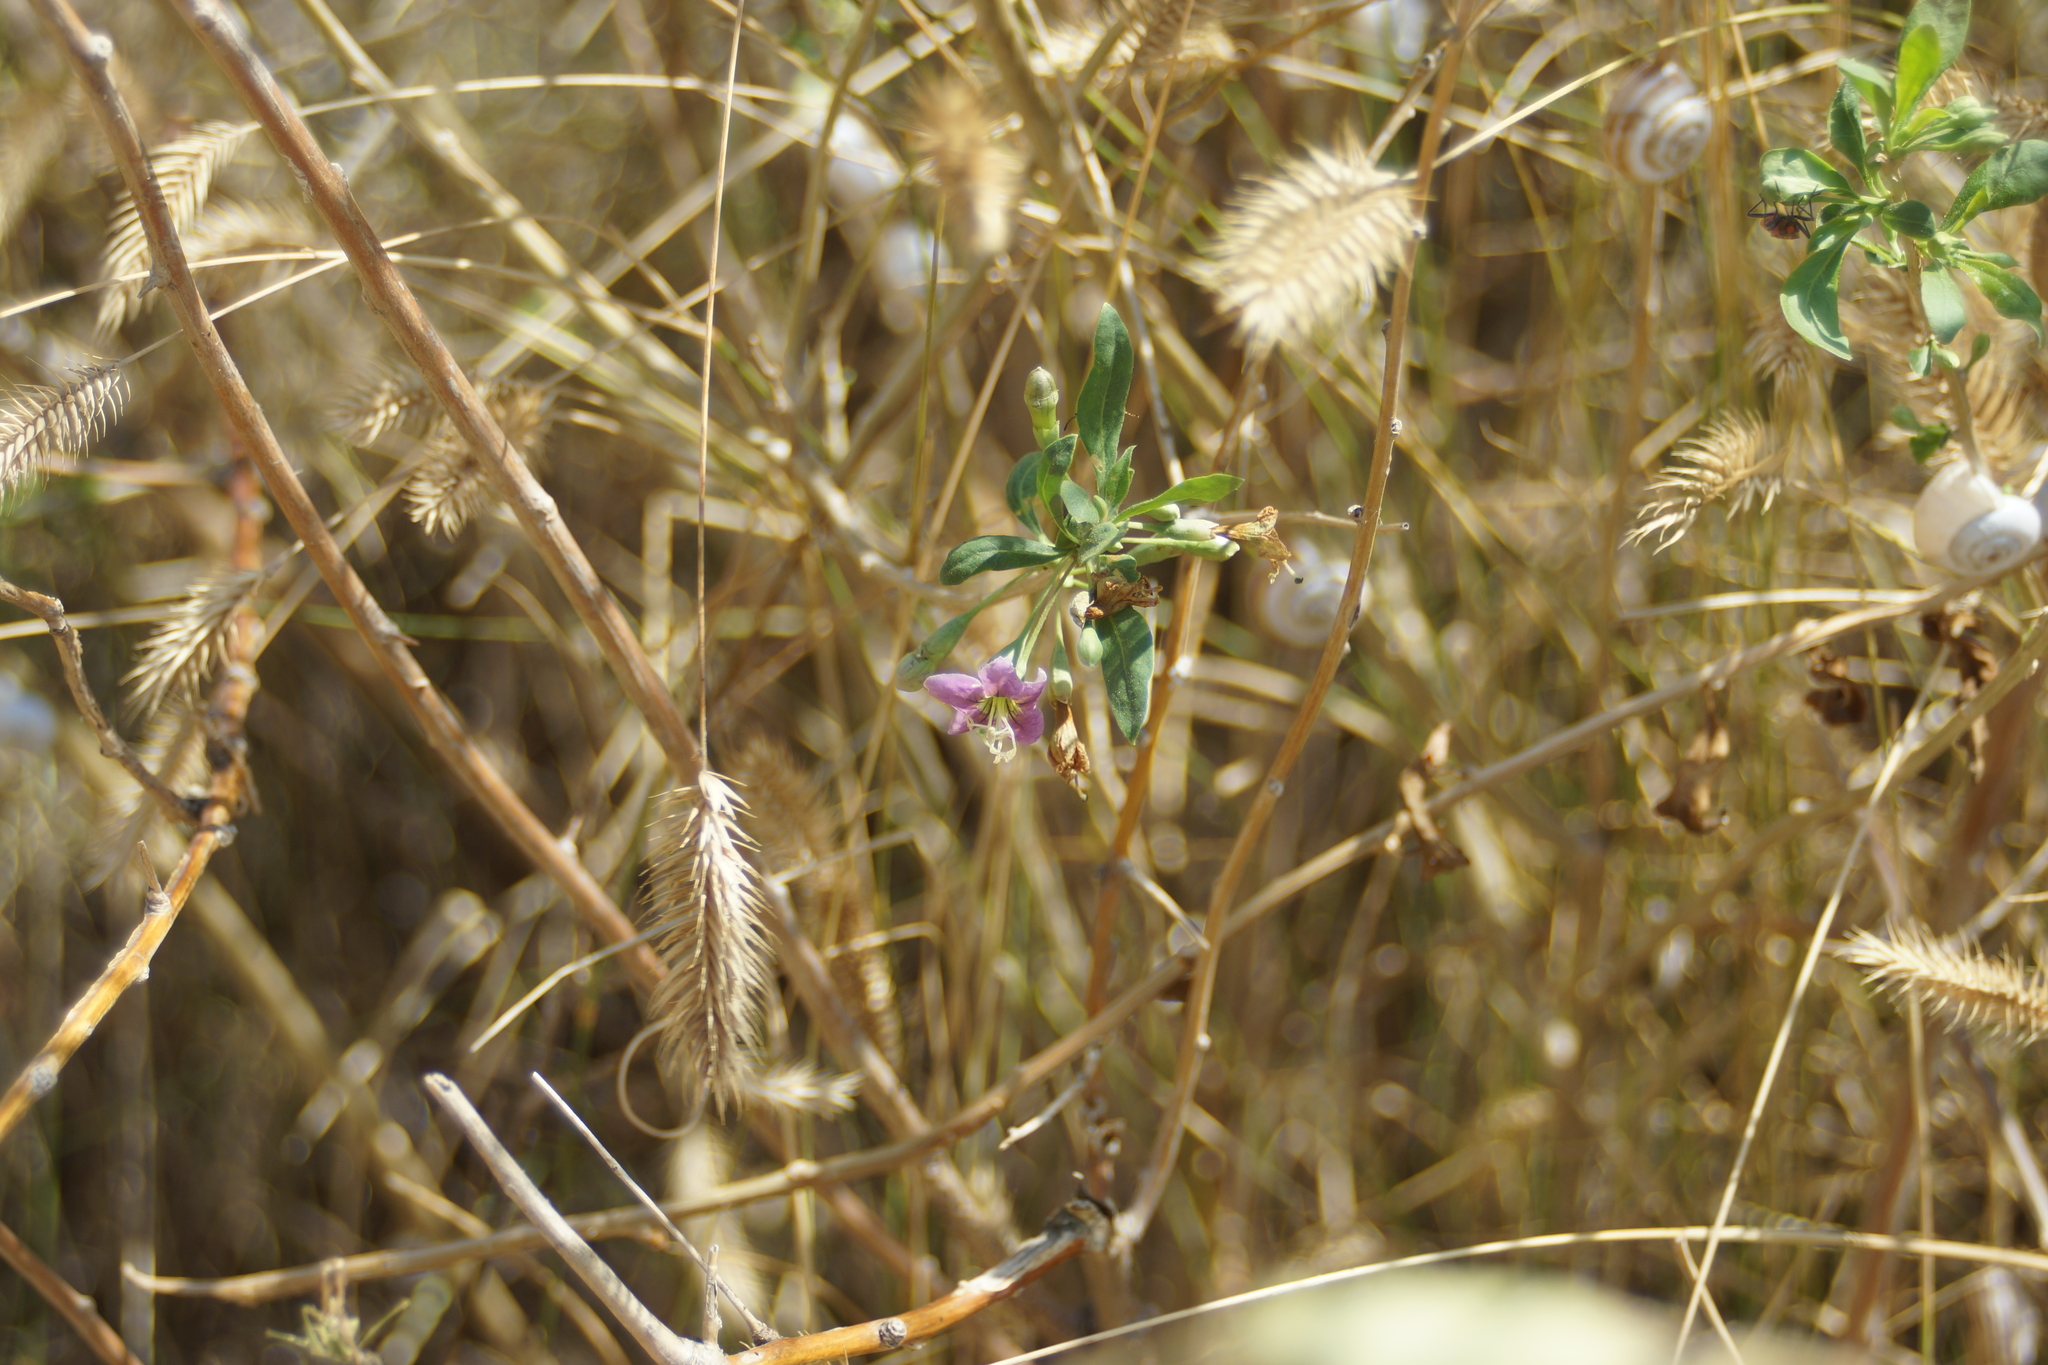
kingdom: Plantae
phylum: Tracheophyta
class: Magnoliopsida
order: Solanales
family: Solanaceae
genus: Lycium
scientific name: Lycium barbarum
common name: Duke of argyll's teaplant
